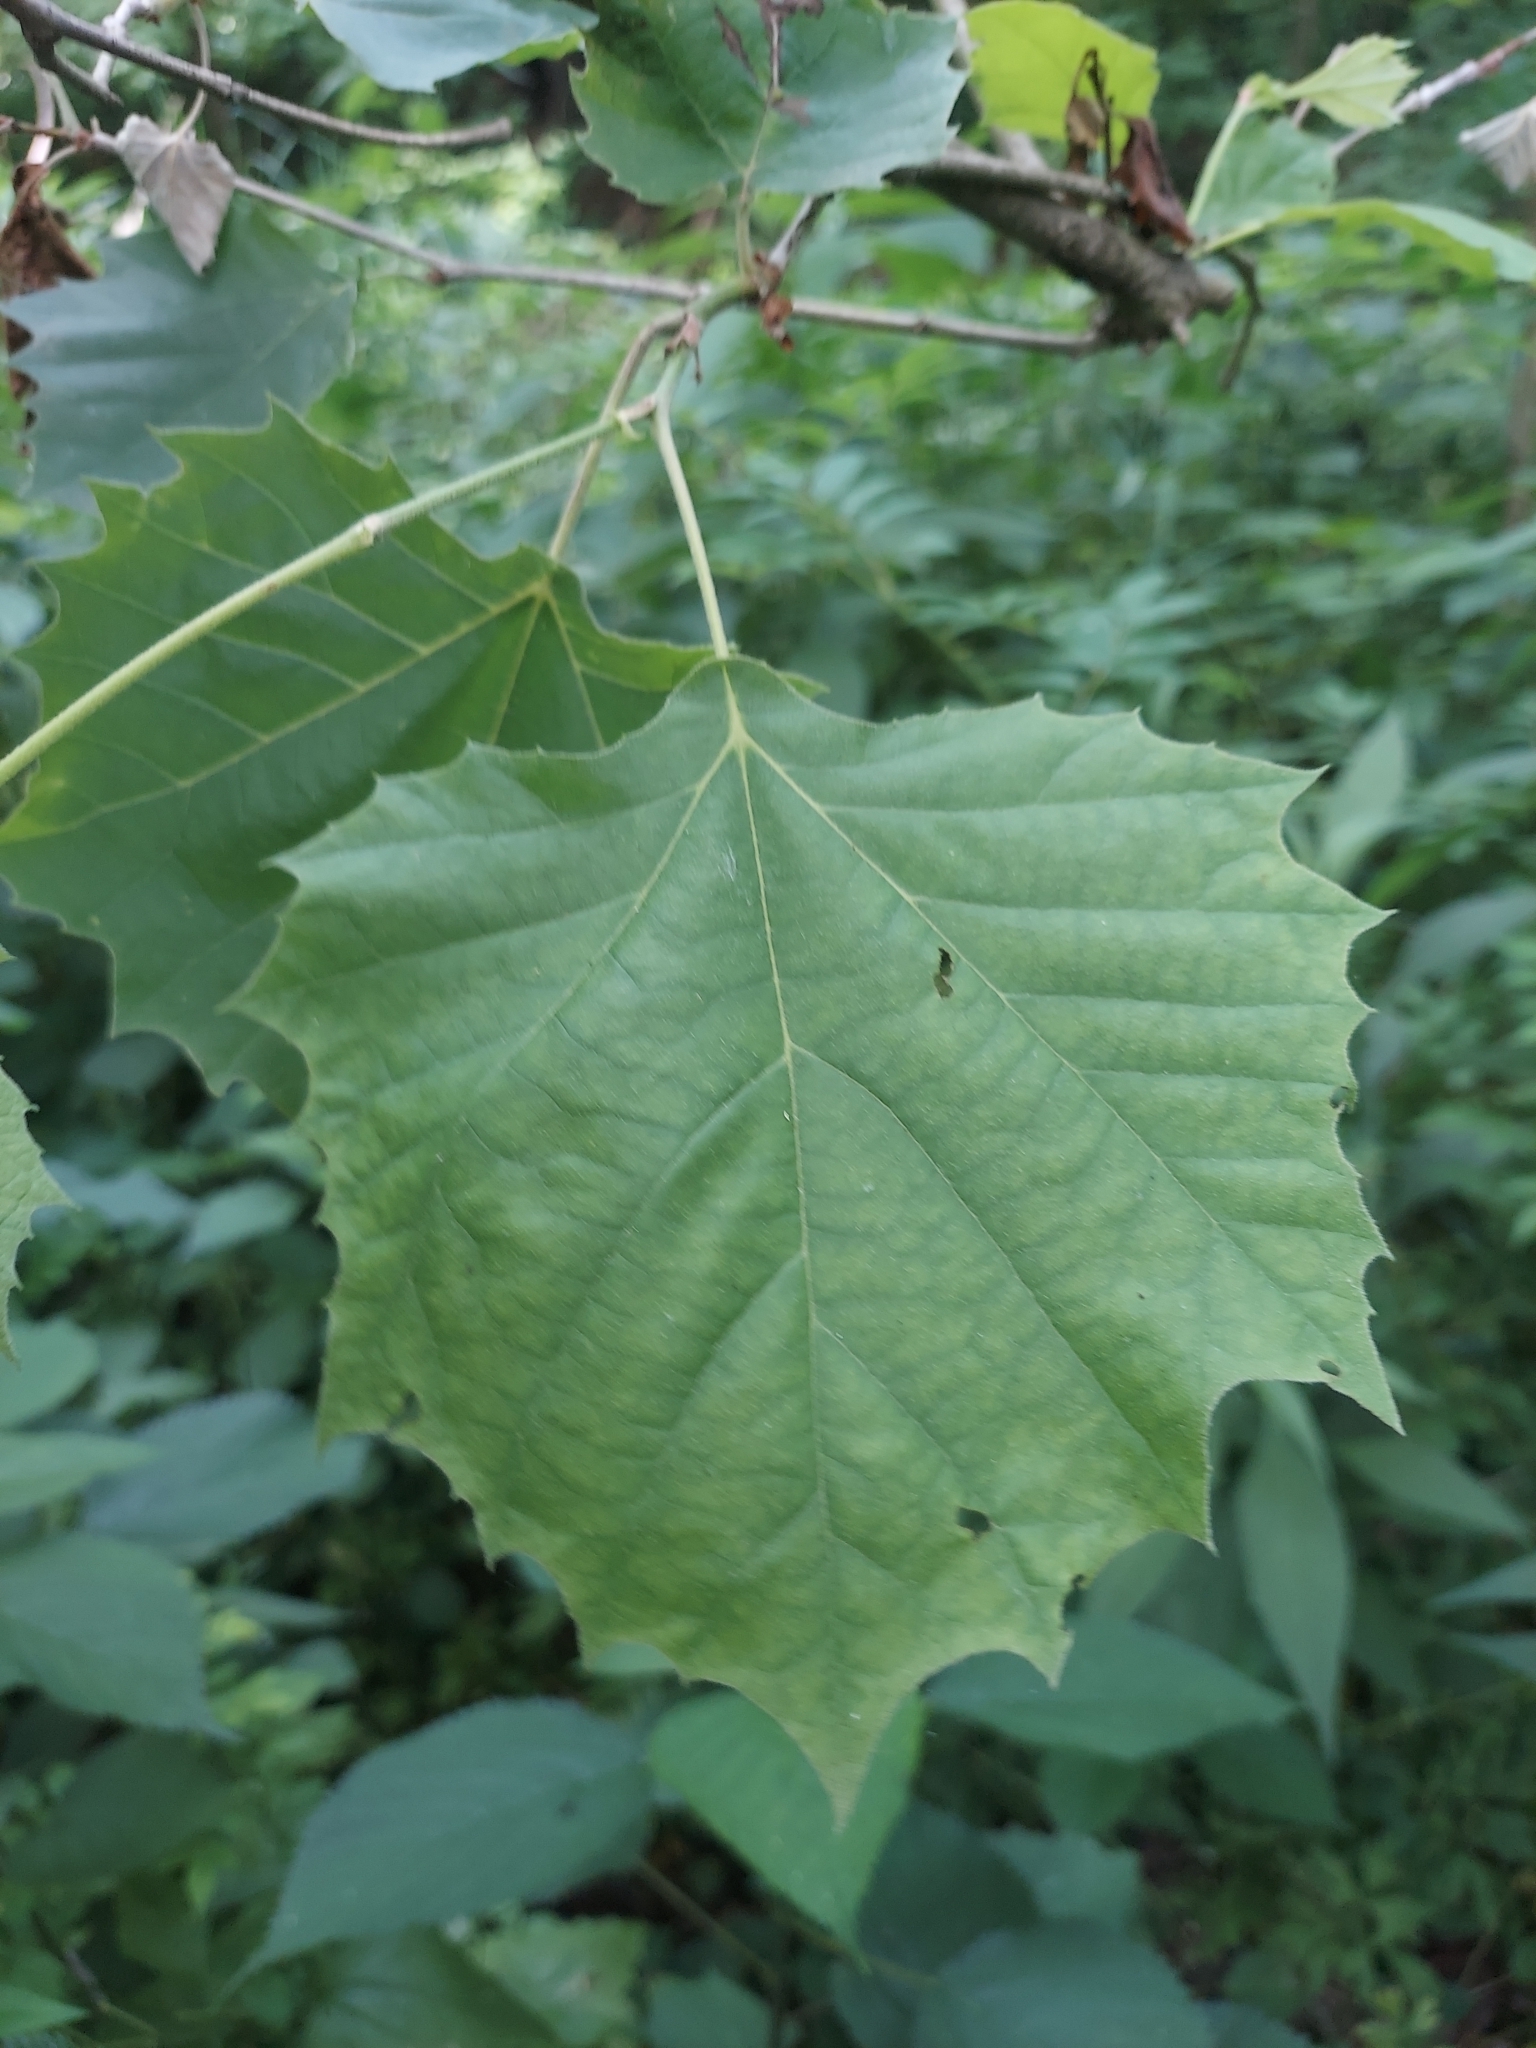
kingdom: Plantae
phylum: Tracheophyta
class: Magnoliopsida
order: Proteales
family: Platanaceae
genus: Platanus
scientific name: Platanus occidentalis
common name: American sycamore
